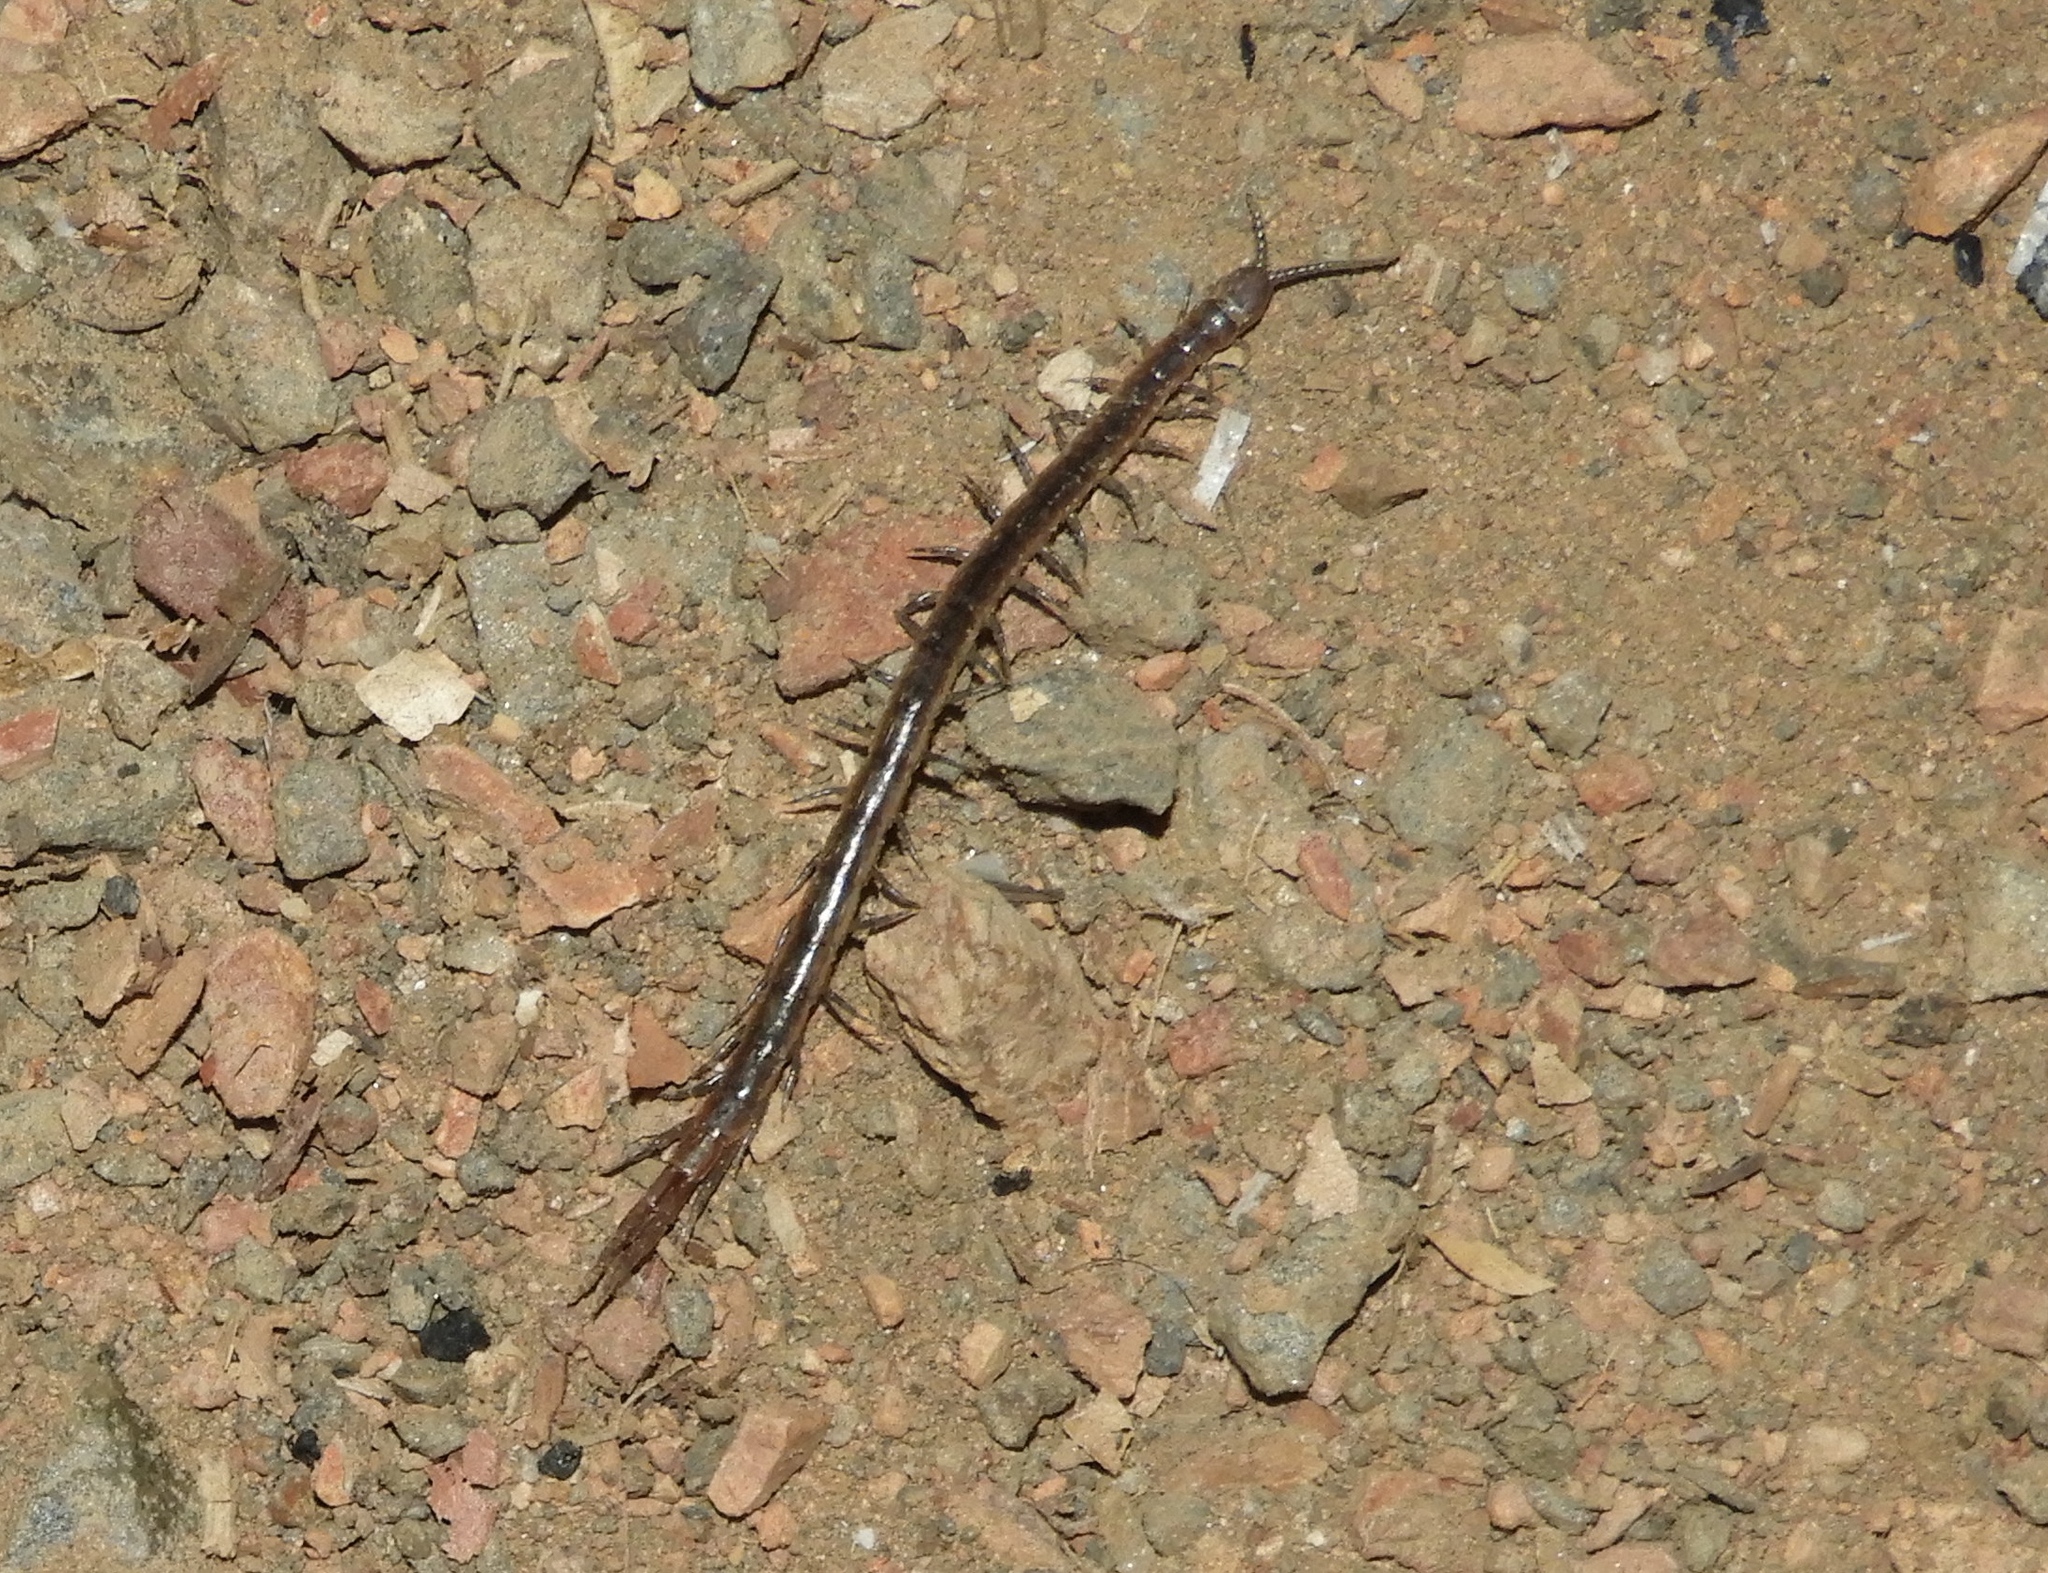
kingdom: Animalia
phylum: Arthropoda
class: Chilopoda
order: Scolopendromorpha
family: Scolopendridae
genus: Arthrorhabdus
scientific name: Arthrorhabdus pygmaeus
